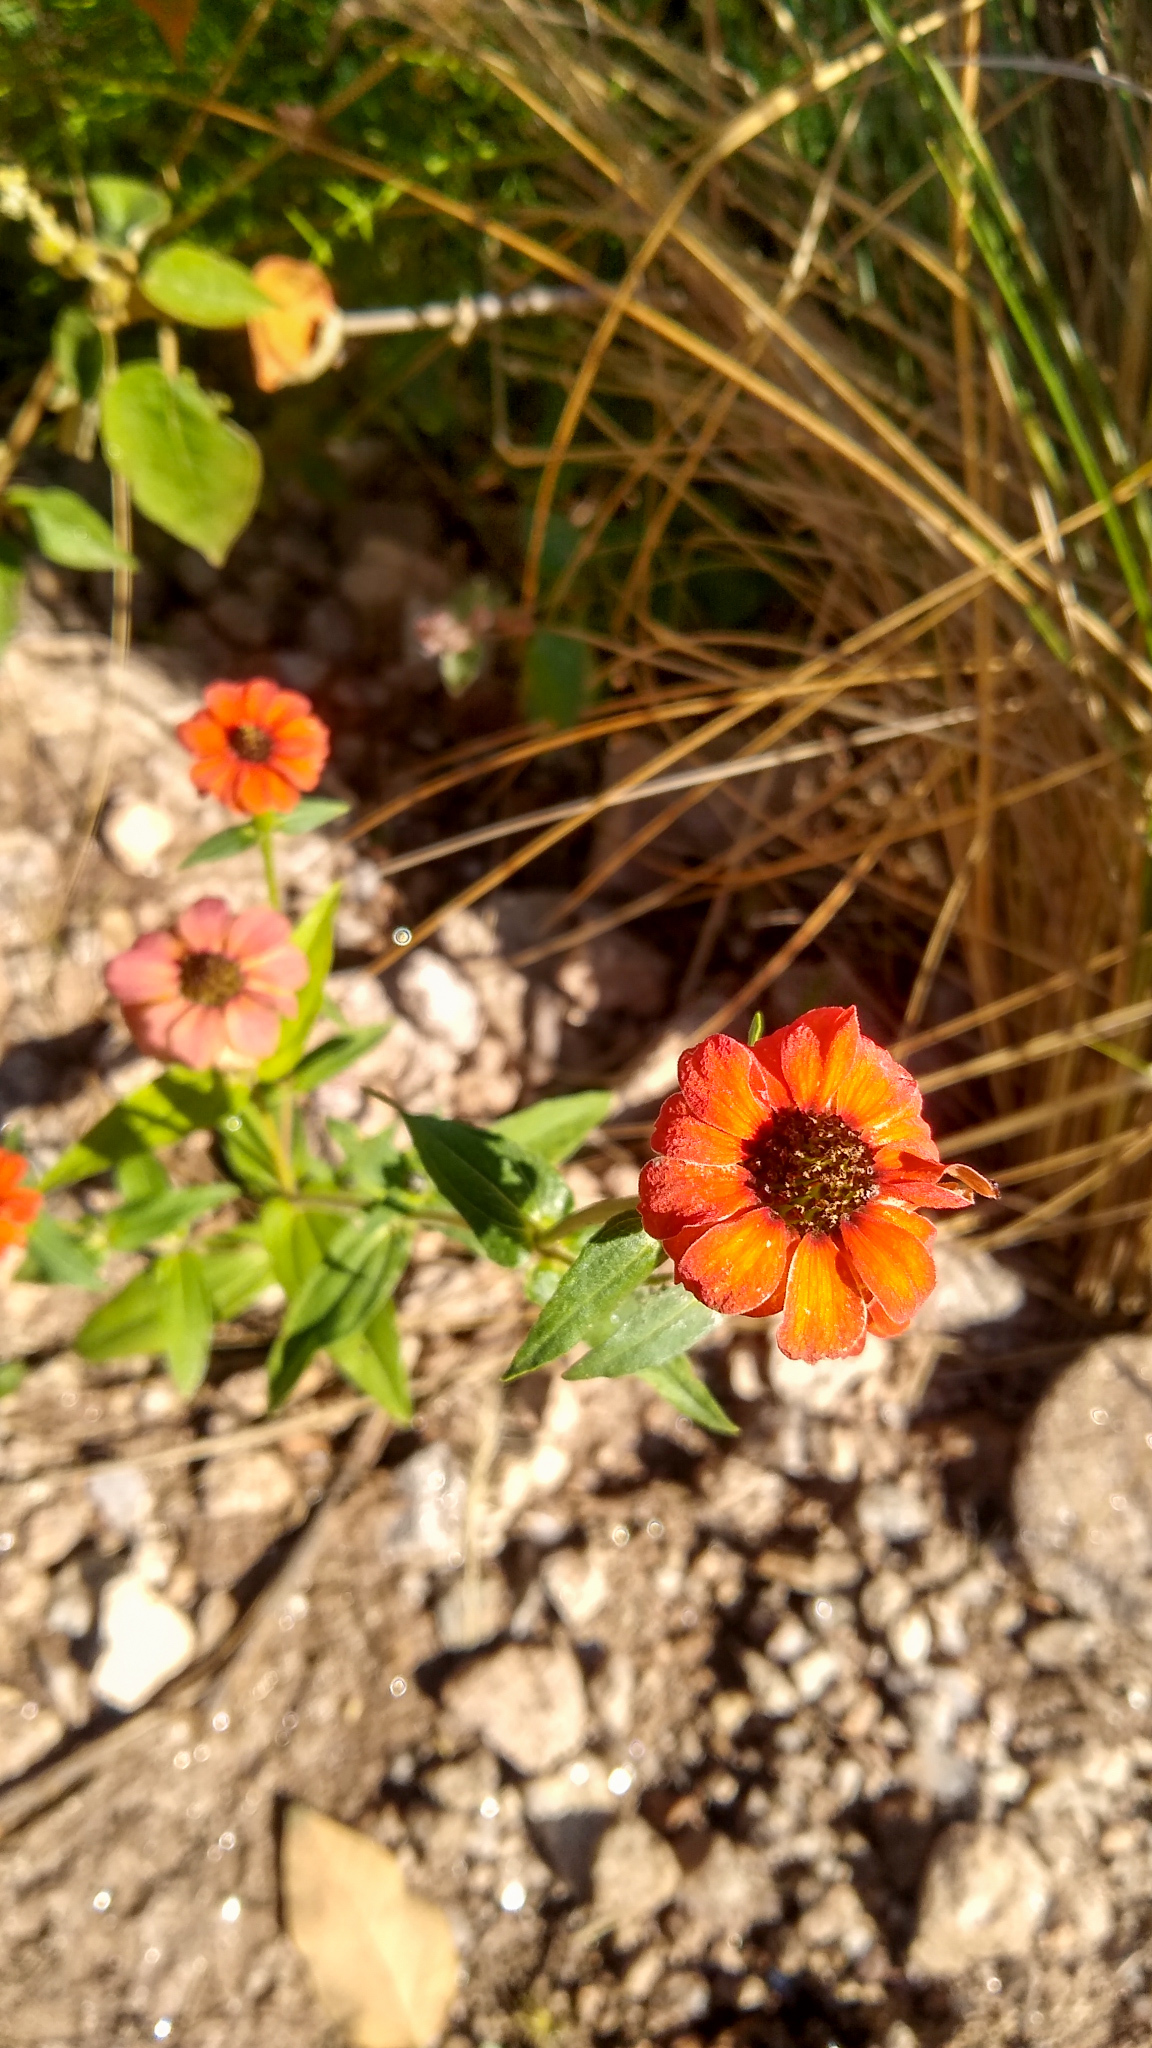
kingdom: Plantae
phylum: Tracheophyta
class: Magnoliopsida
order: Asterales
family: Asteraceae
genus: Zinnia
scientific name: Zinnia peruviana
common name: Peruvian zinnia
